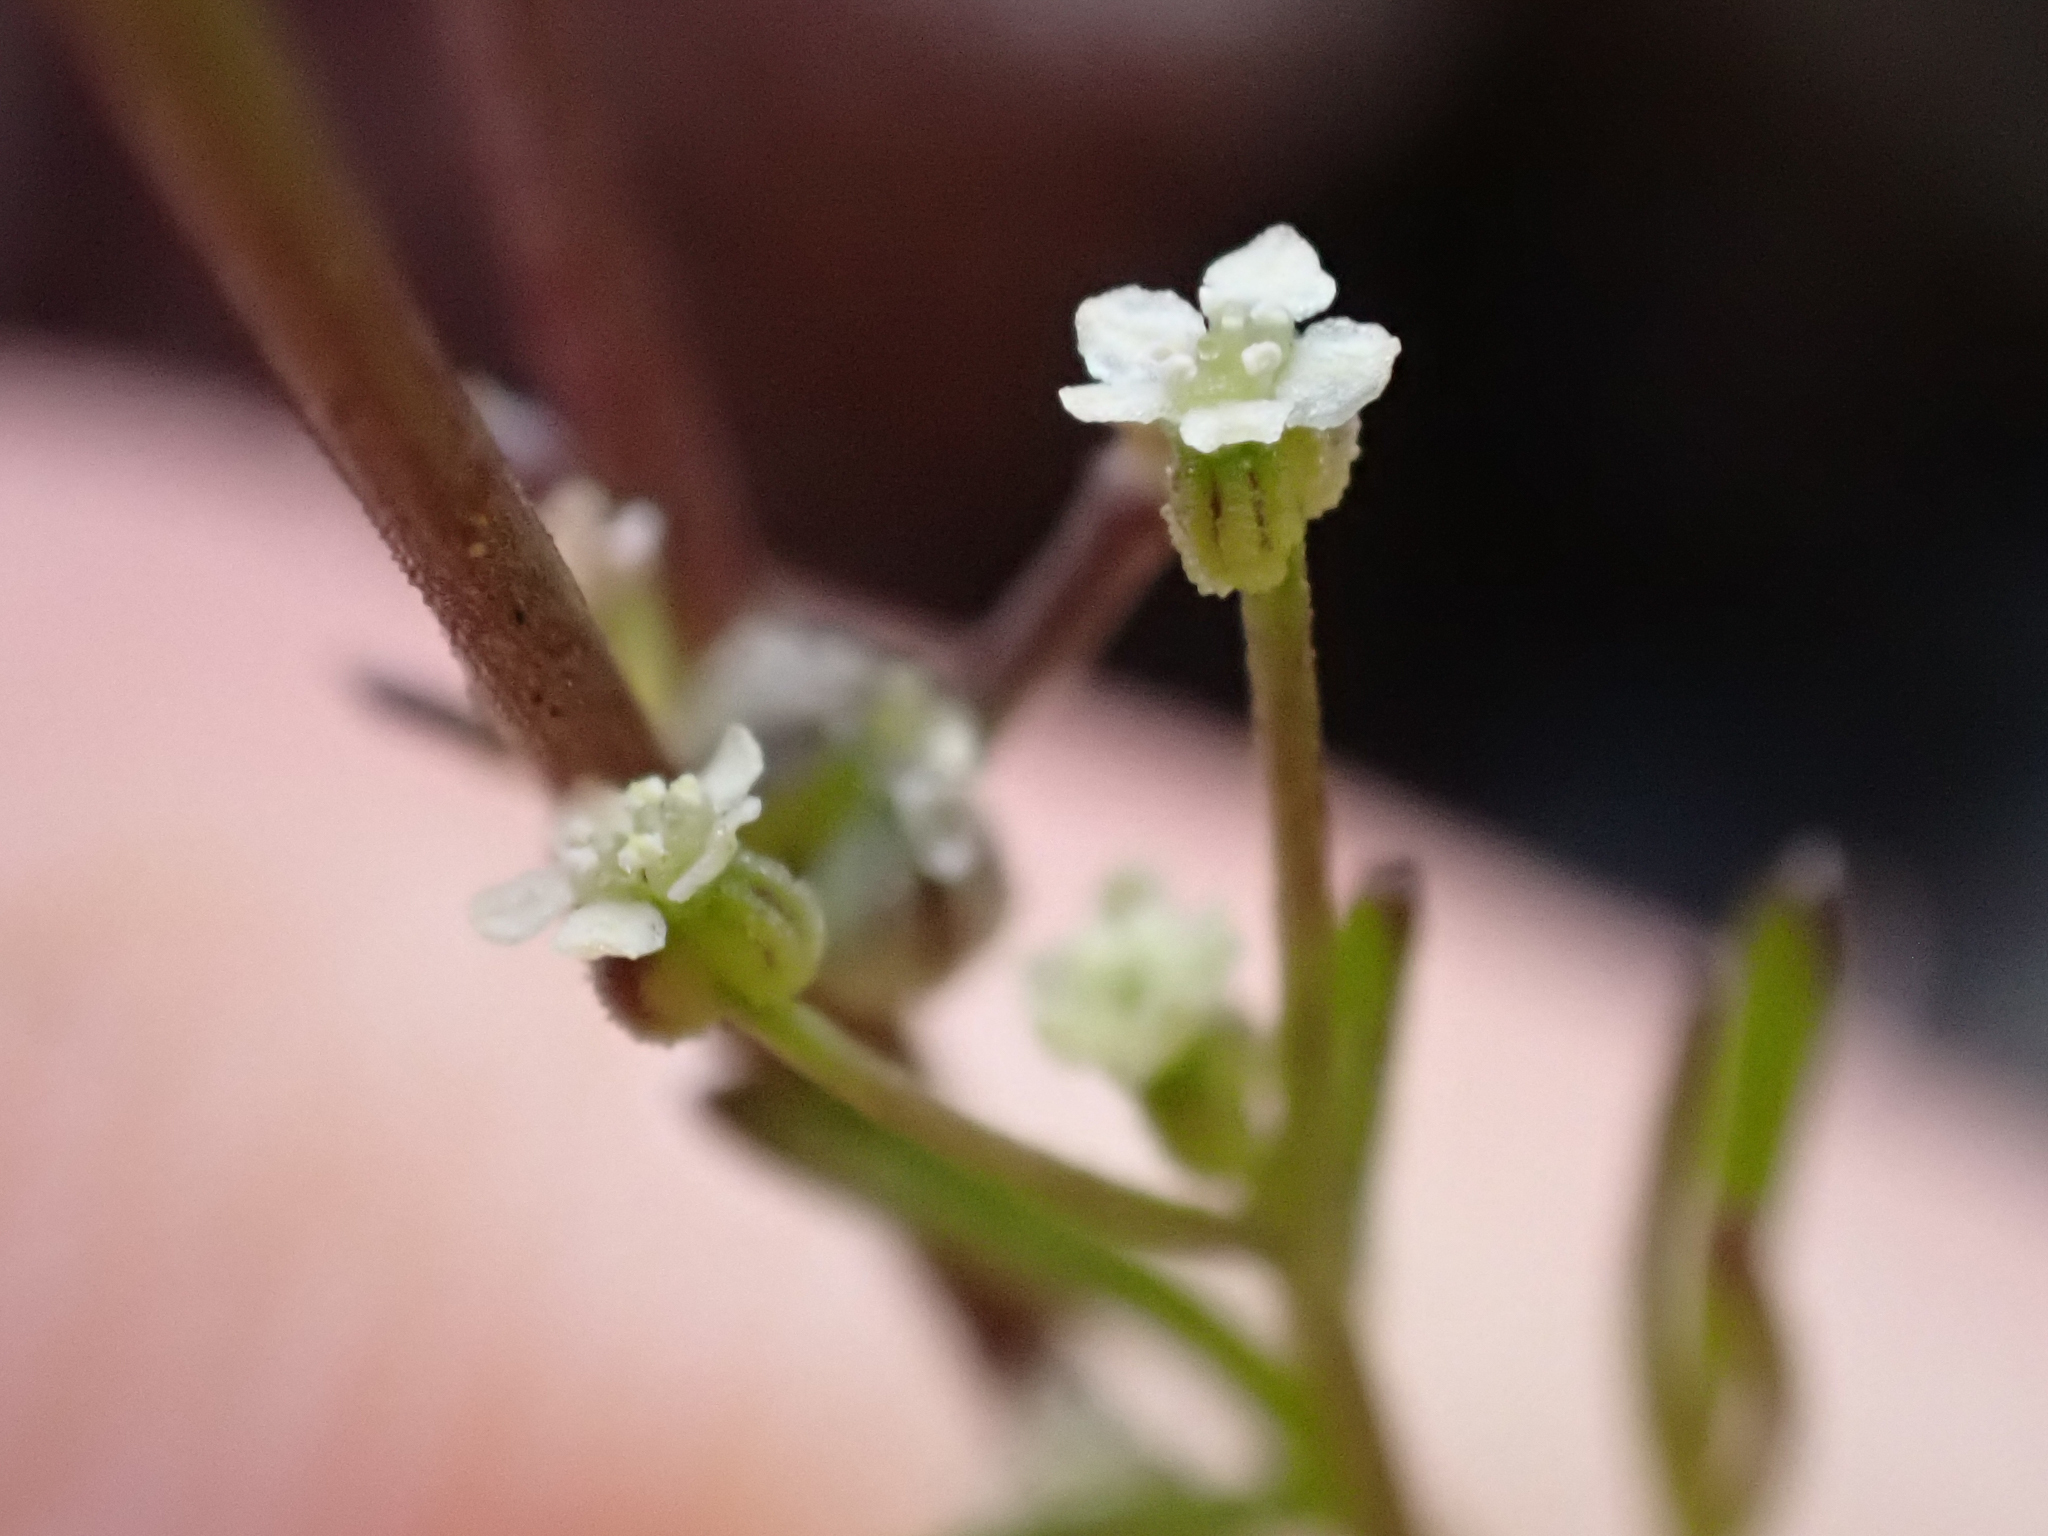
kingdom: Plantae
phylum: Tracheophyta
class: Magnoliopsida
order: Apiales
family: Apiaceae
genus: Apiastrum
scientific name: Apiastrum angustifolium
